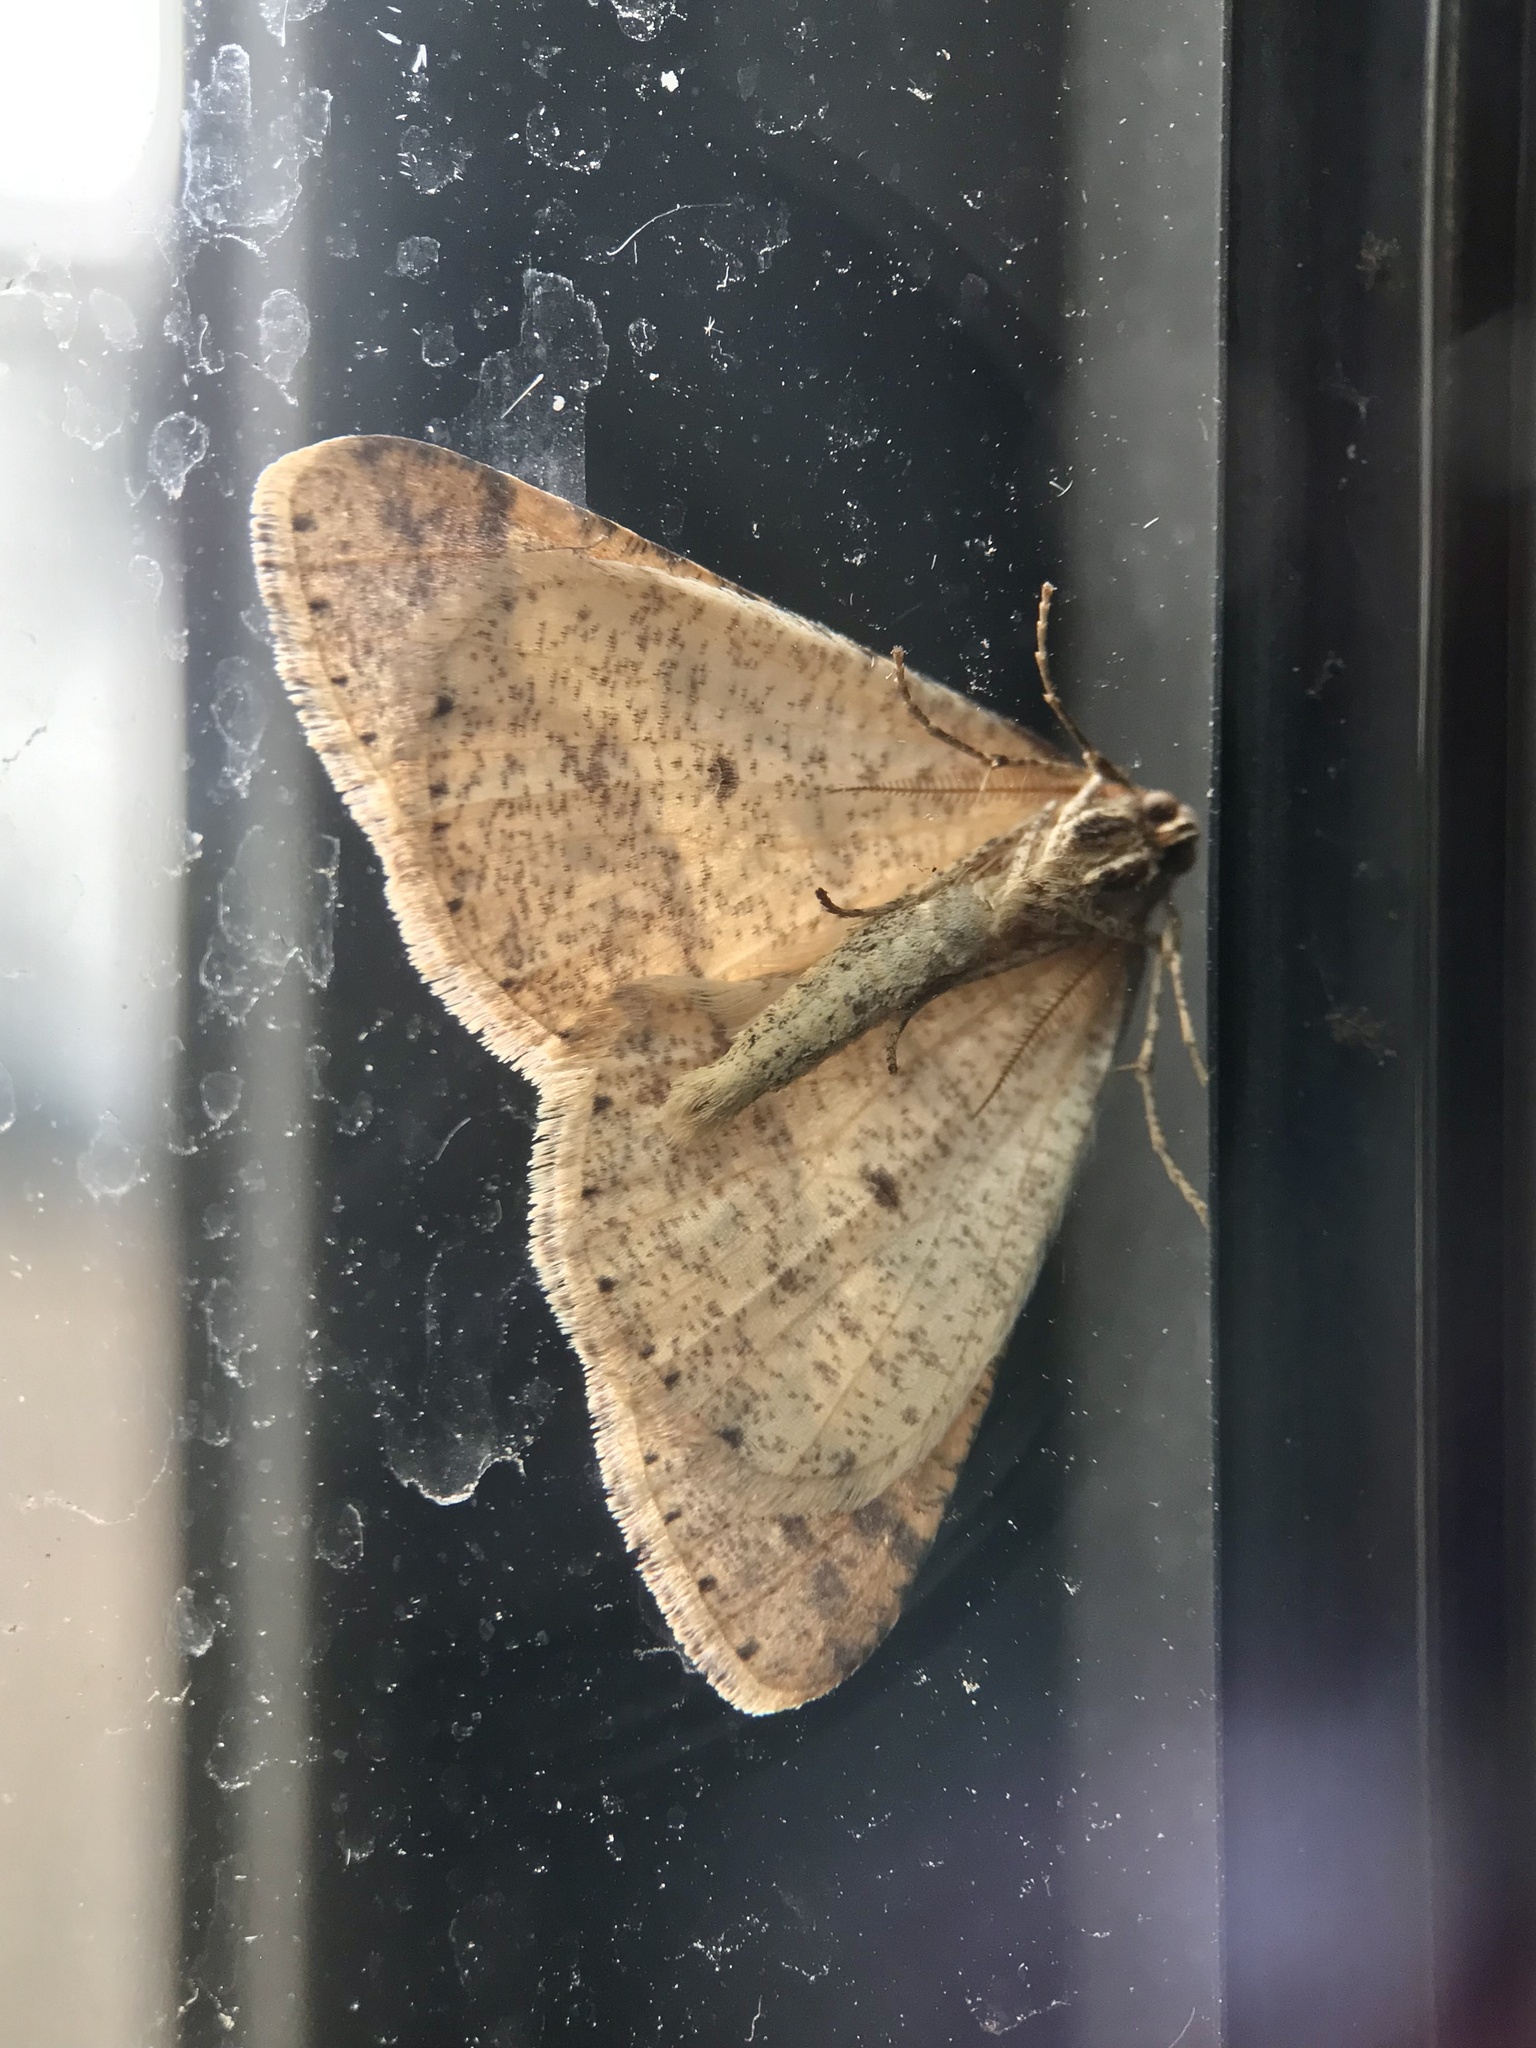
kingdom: Animalia
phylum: Arthropoda
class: Insecta
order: Lepidoptera
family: Geometridae
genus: Agriopis
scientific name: Agriopis marginaria
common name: Dotted border
